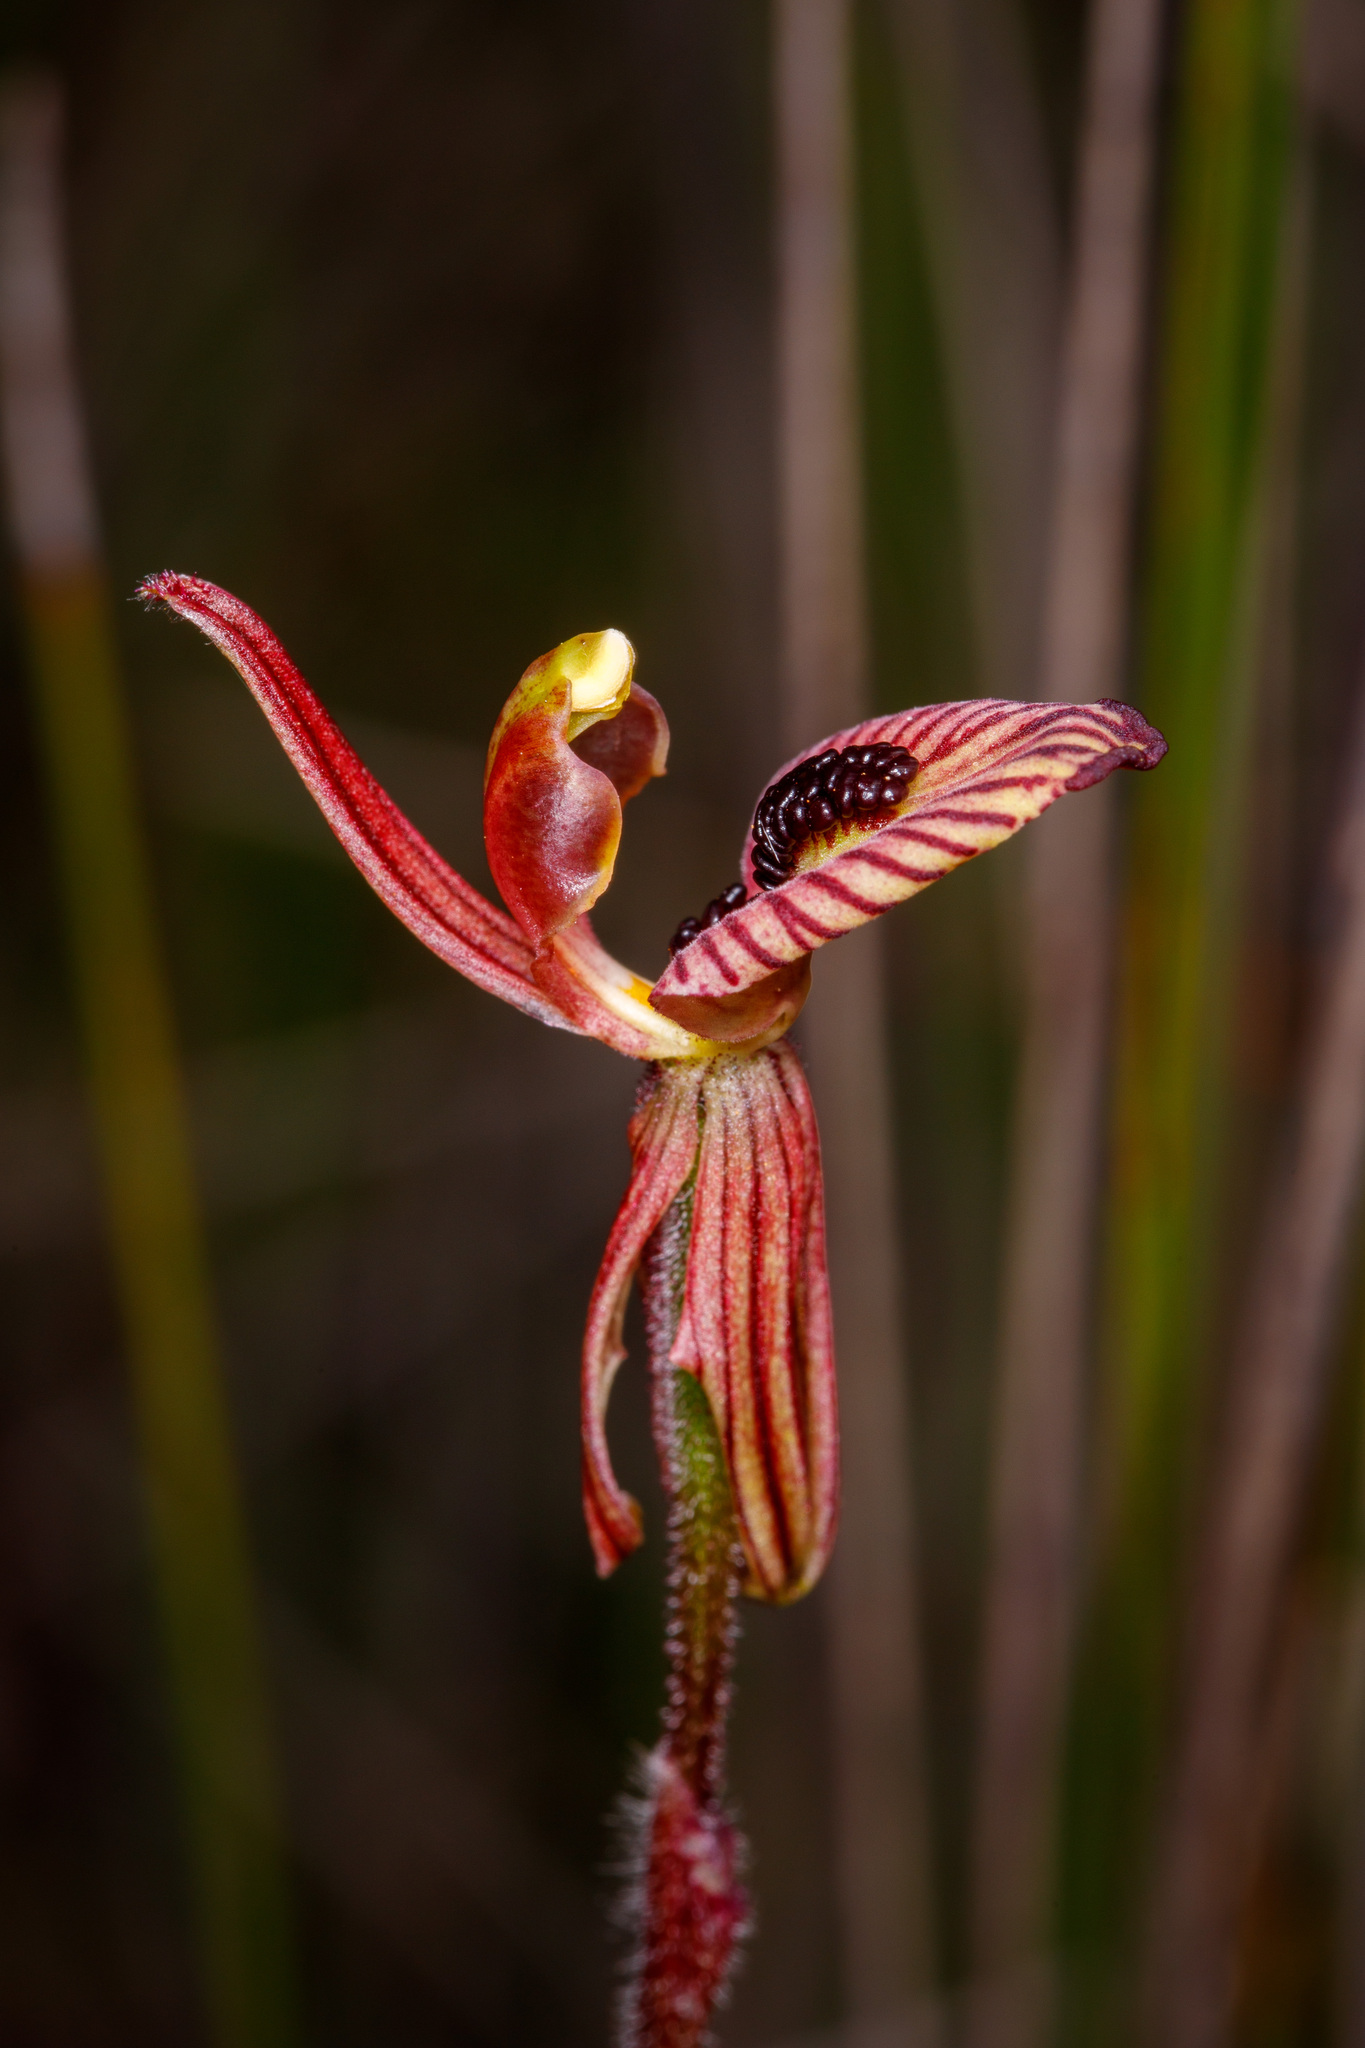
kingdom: Plantae
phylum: Tracheophyta
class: Liliopsida
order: Asparagales
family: Orchidaceae
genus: Caladenia
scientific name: Caladenia cairnsiana
